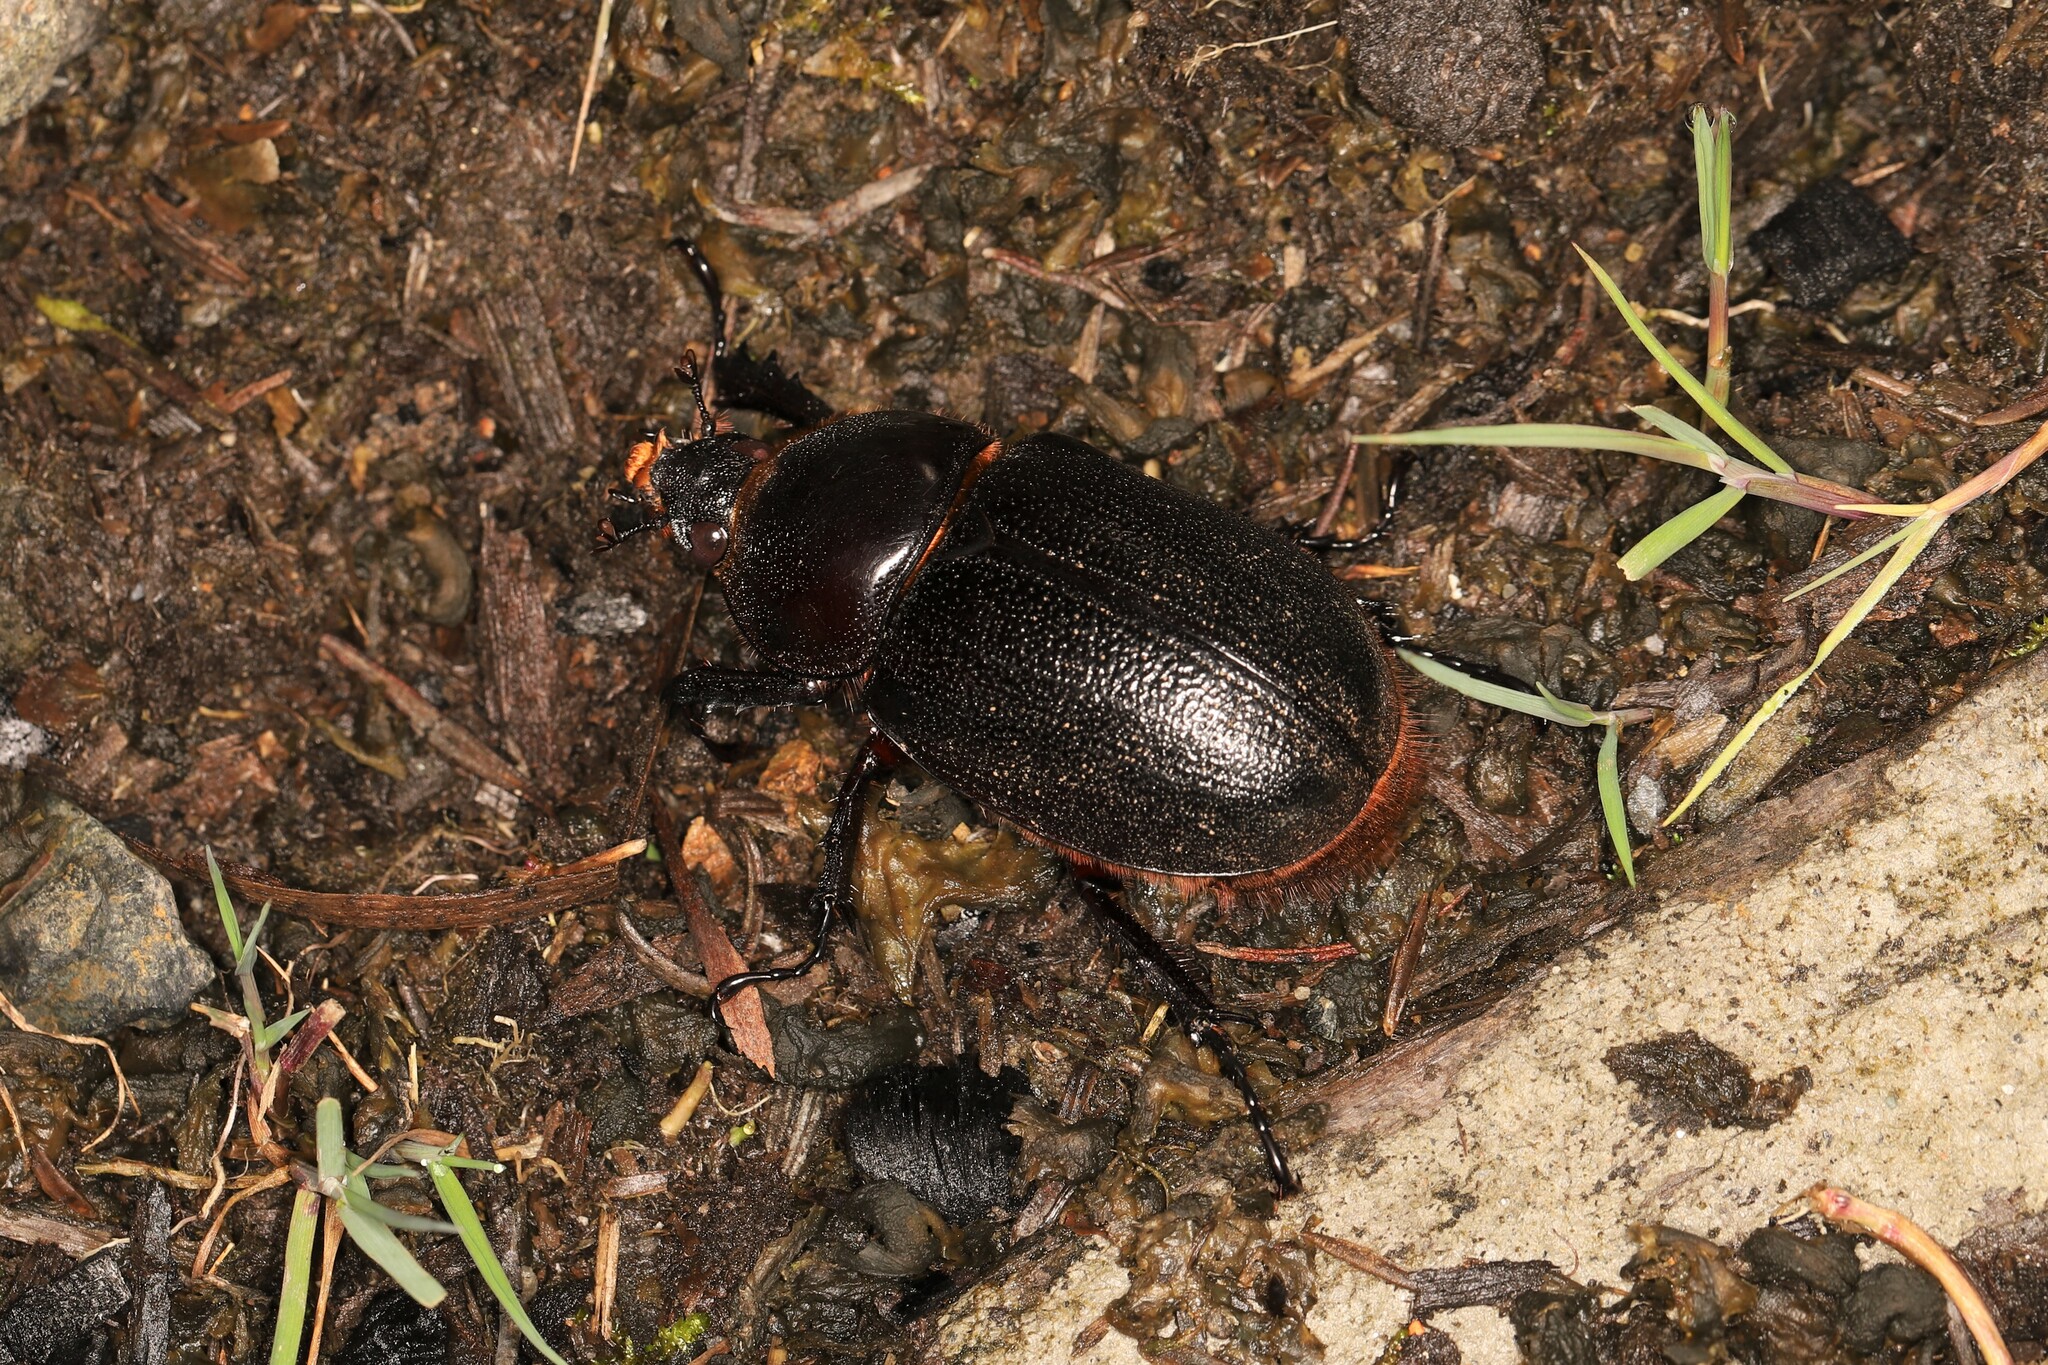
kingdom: Animalia
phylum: Arthropoda
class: Insecta
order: Coleoptera
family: Scarabaeidae
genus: Heterogomphus
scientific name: Heterogomphus schoenherri
